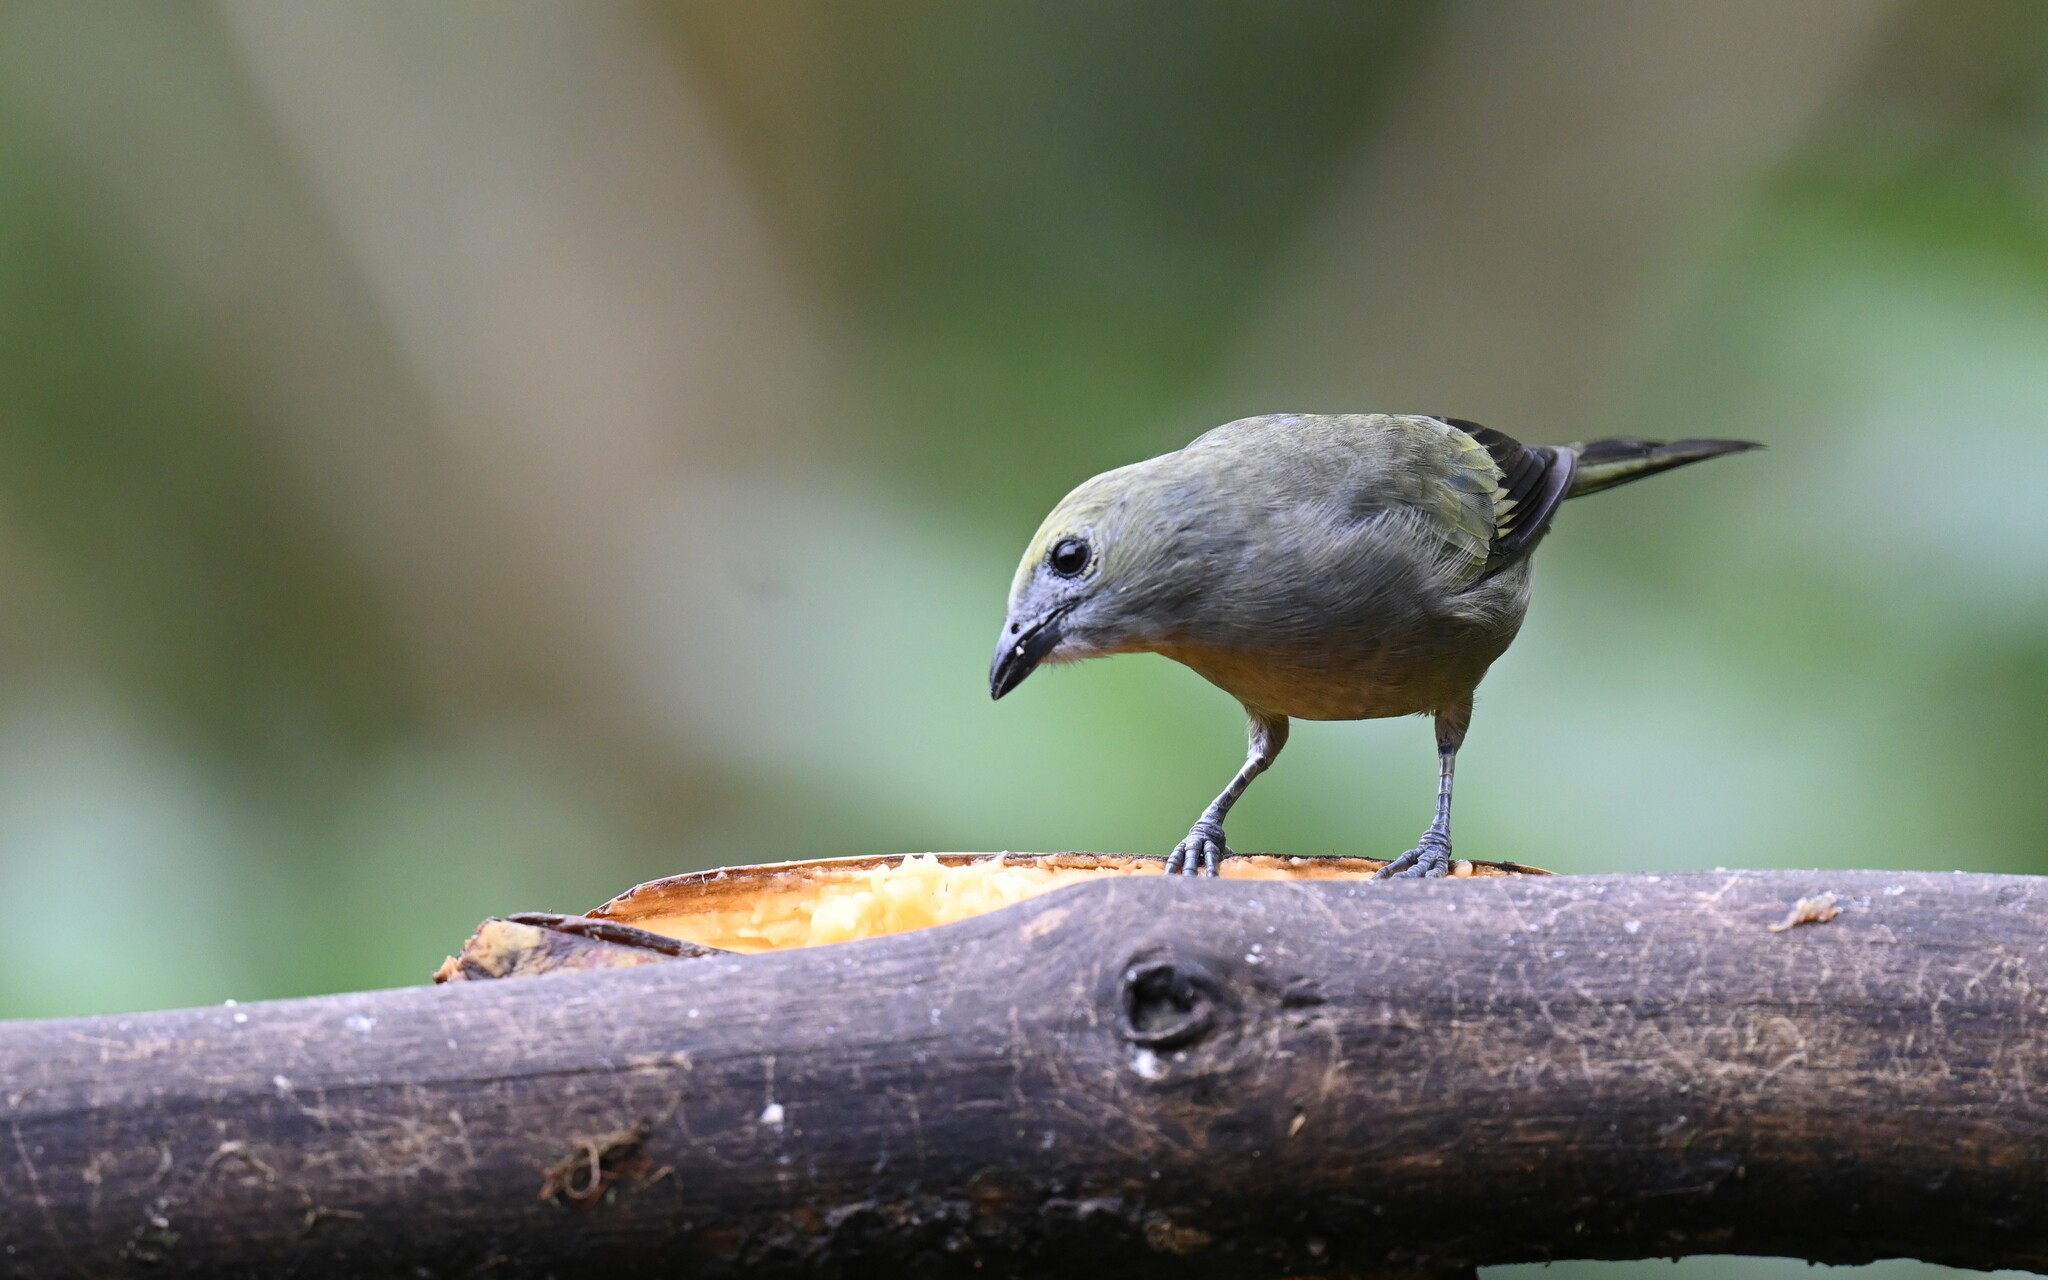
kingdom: Animalia
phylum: Chordata
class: Aves
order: Passeriformes
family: Thraupidae
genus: Thraupis
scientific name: Thraupis palmarum
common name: Palm tanager
